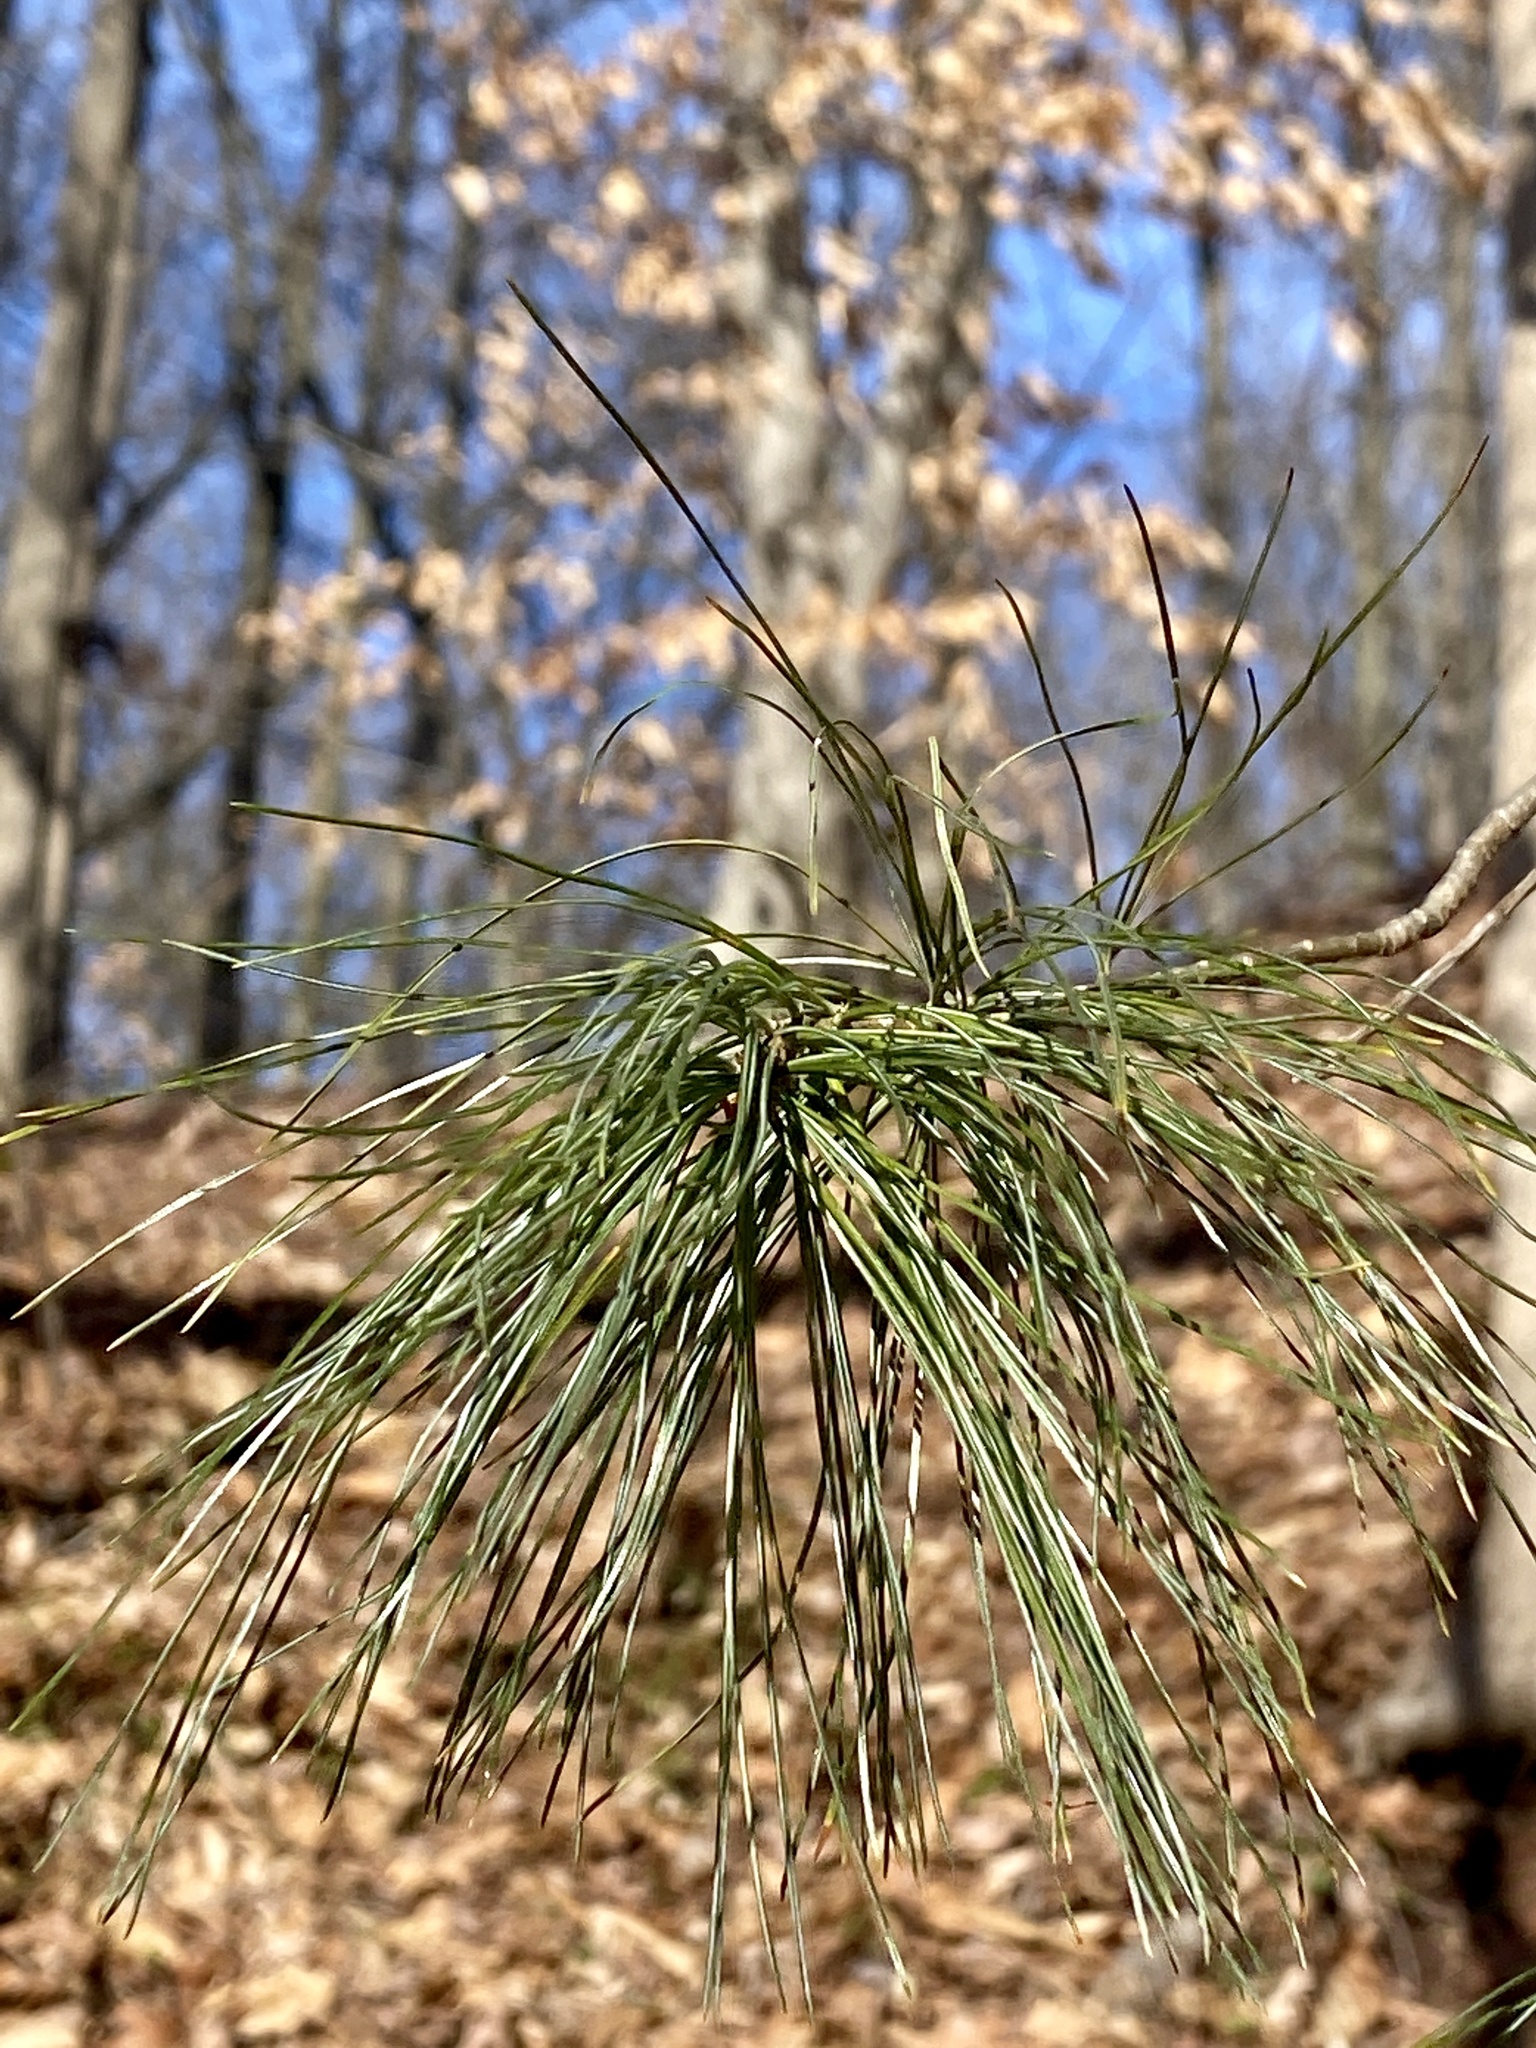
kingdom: Plantae
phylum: Tracheophyta
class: Pinopsida
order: Pinales
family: Pinaceae
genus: Pinus
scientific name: Pinus strobus
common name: Weymouth pine
